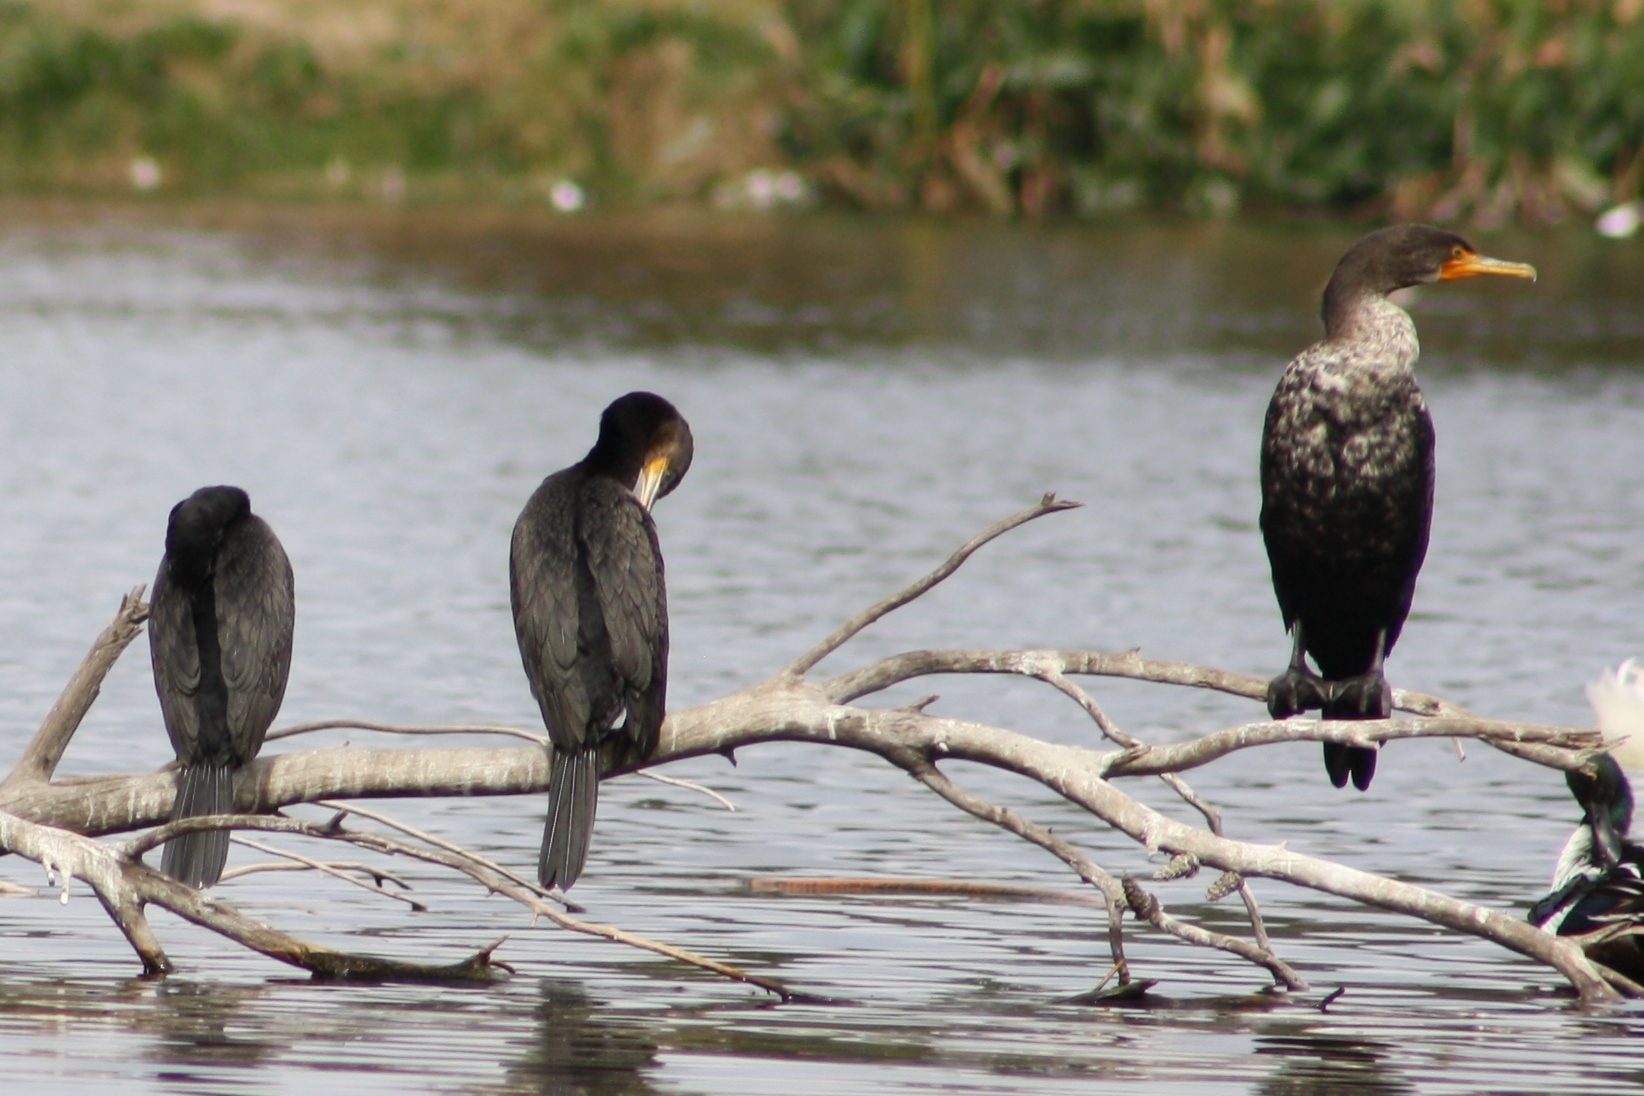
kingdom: Animalia
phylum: Chordata
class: Aves
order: Suliformes
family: Phalacrocoracidae
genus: Phalacrocorax
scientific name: Phalacrocorax auritus
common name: Double-crested cormorant
